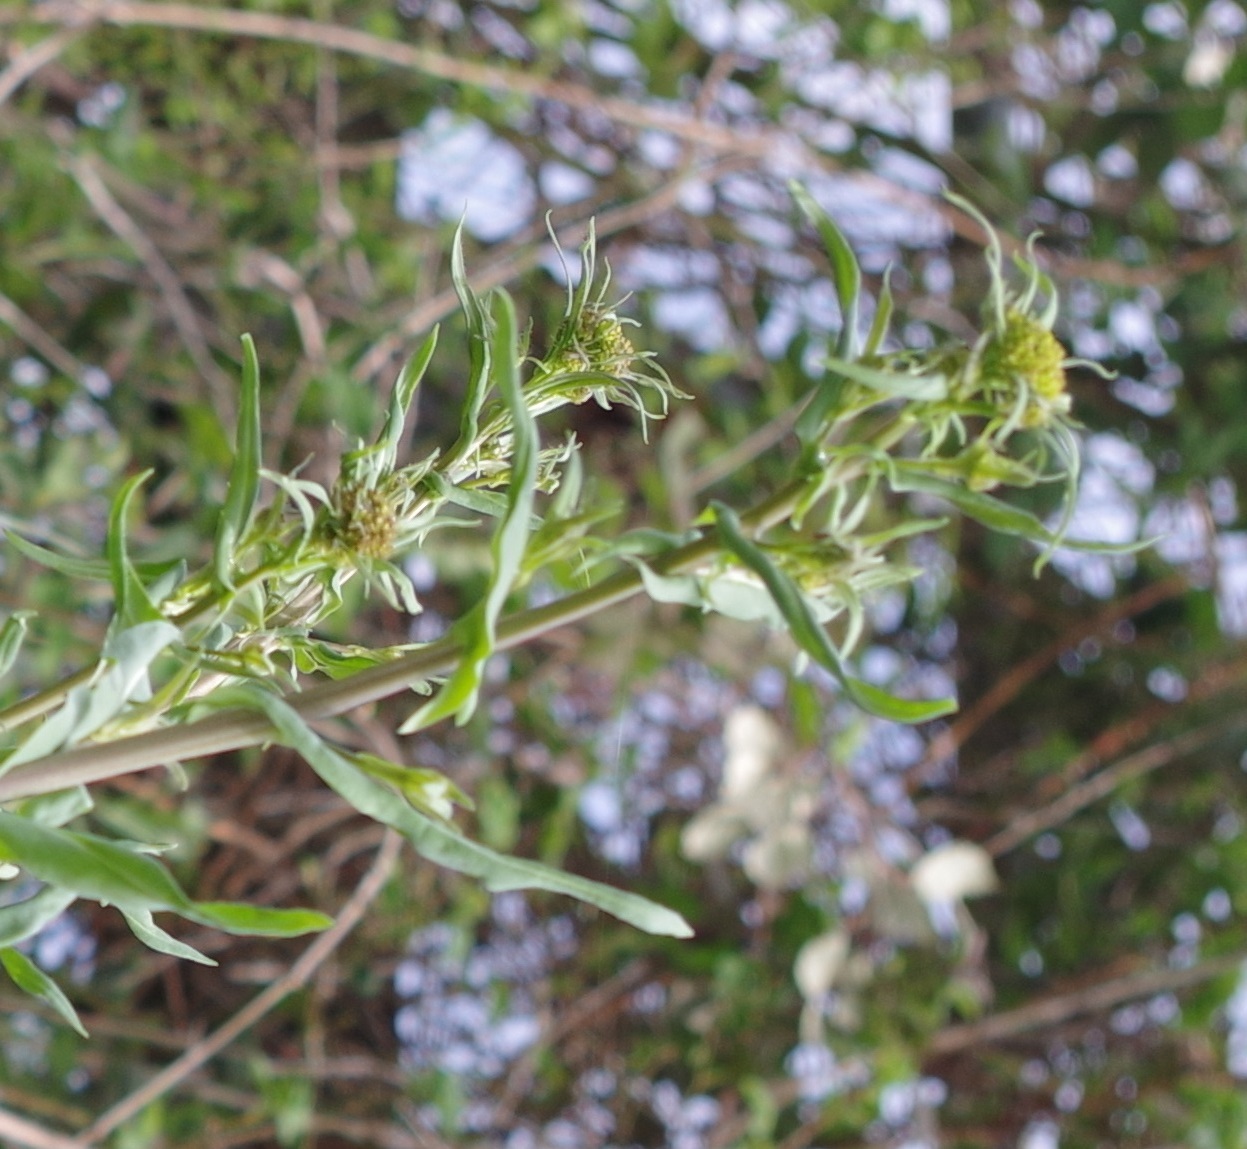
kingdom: Plantae
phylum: Tracheophyta
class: Magnoliopsida
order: Brassicales
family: Brassicaceae
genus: Isatis
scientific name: Isatis tinctoria
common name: Woad
